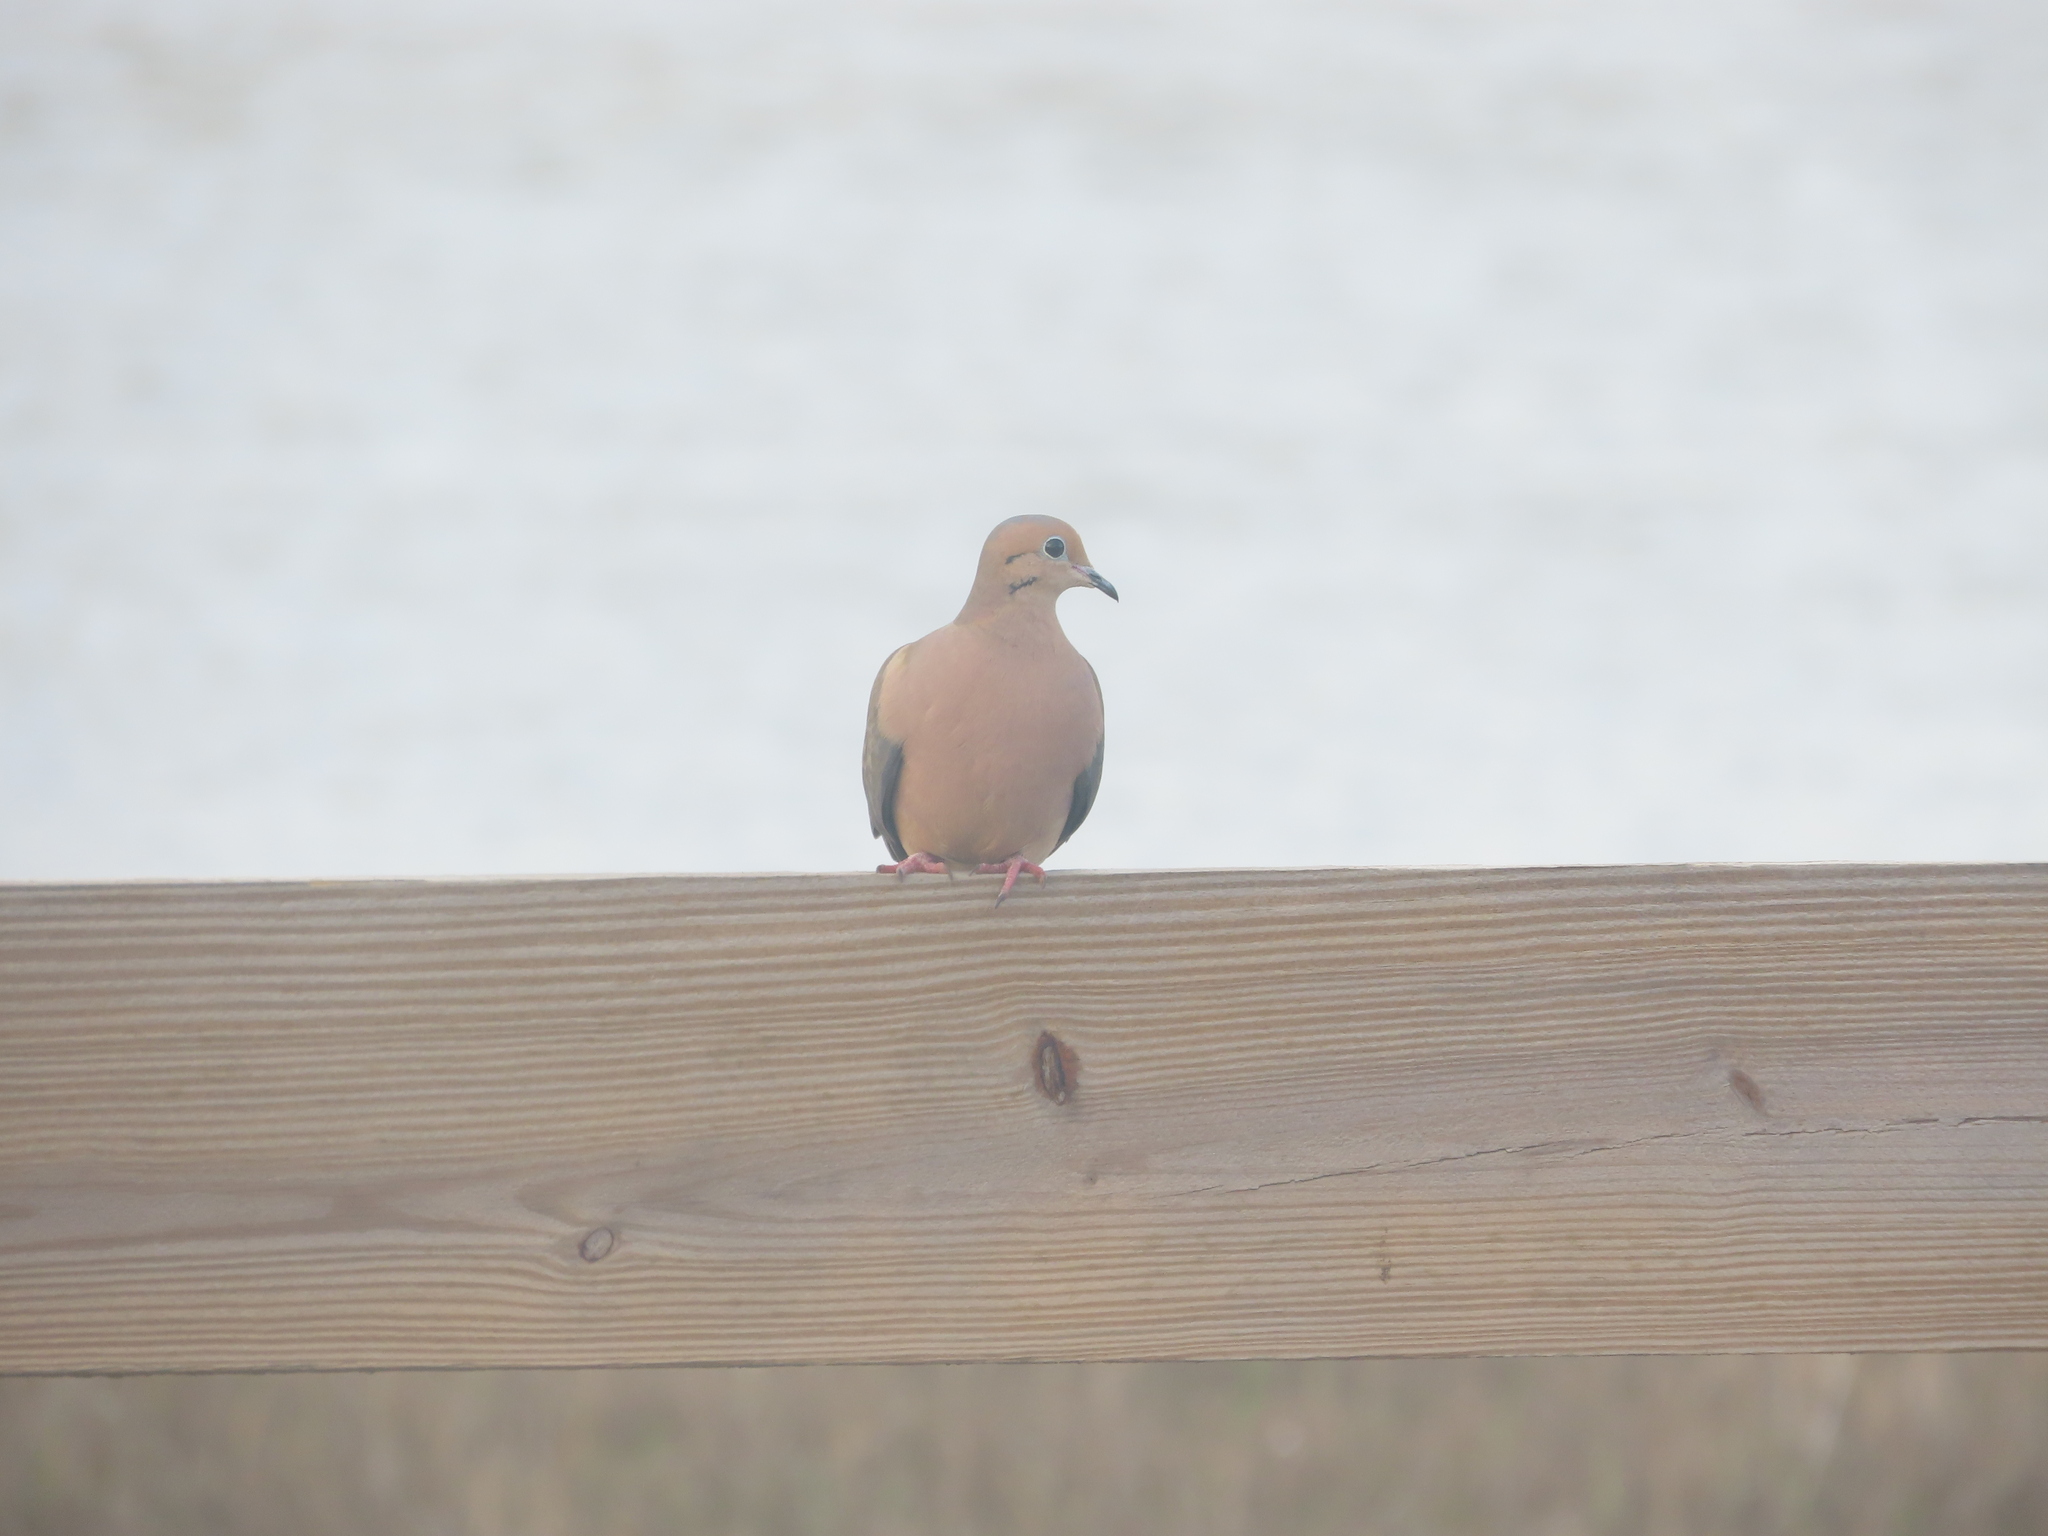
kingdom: Animalia
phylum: Chordata
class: Aves
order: Columbiformes
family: Columbidae
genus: Zenaida
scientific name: Zenaida macroura
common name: Mourning dove
